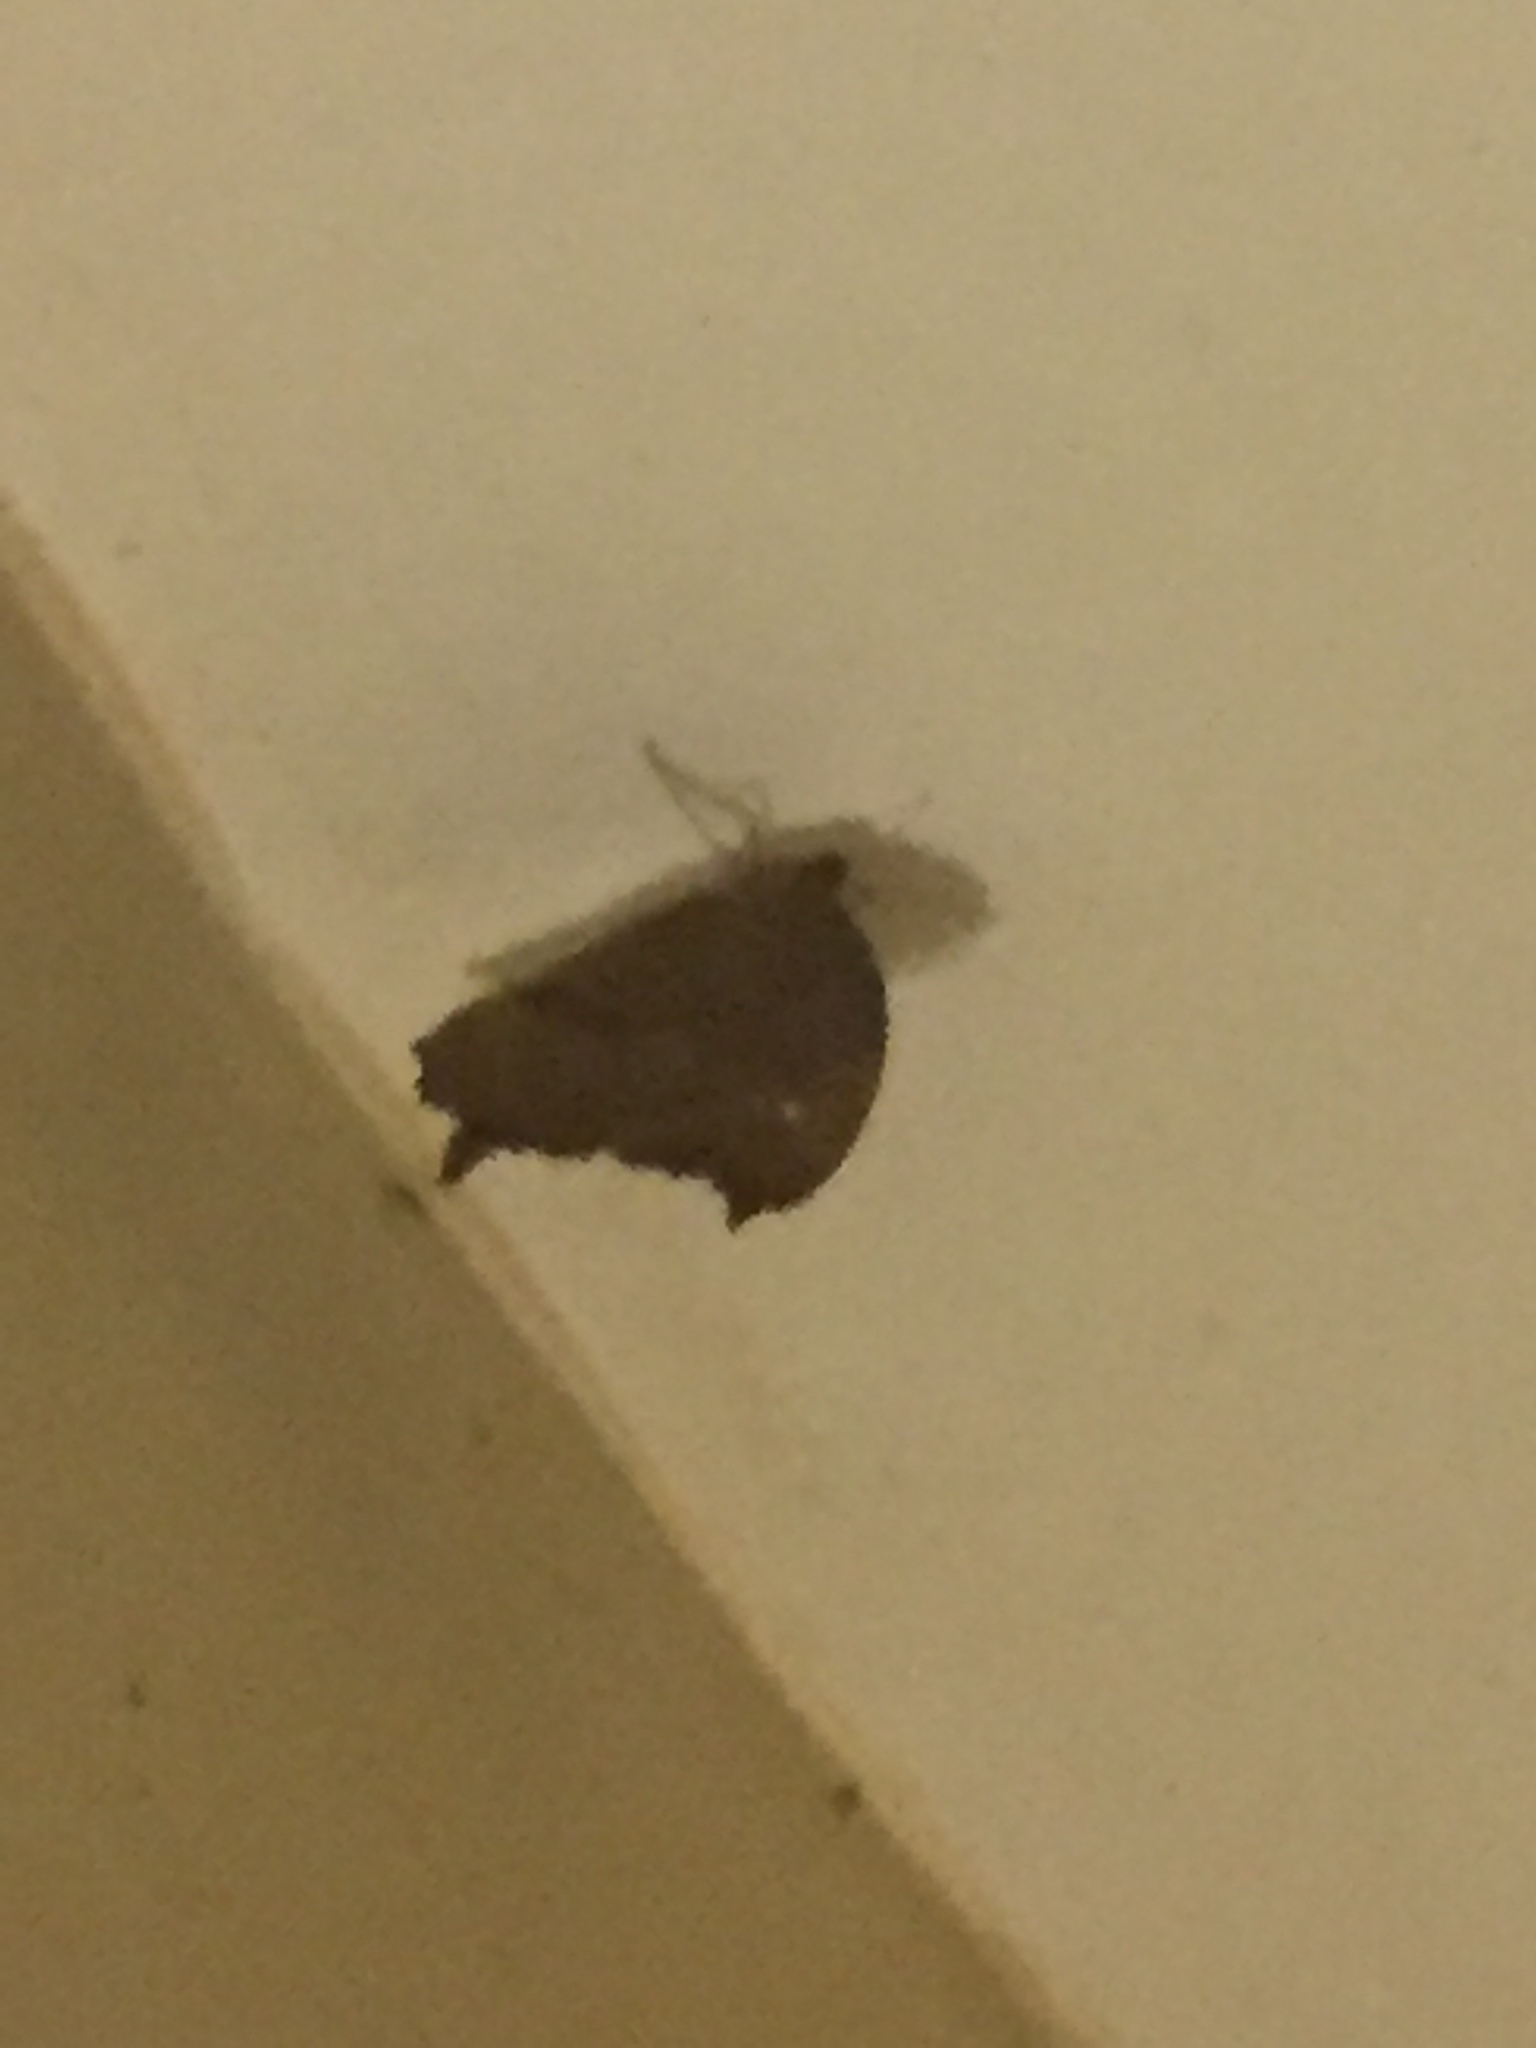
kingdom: Animalia
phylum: Arthropoda
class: Insecta
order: Lepidoptera
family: Nymphalidae
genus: Melanitis
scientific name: Melanitis leda
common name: Twilight brown
